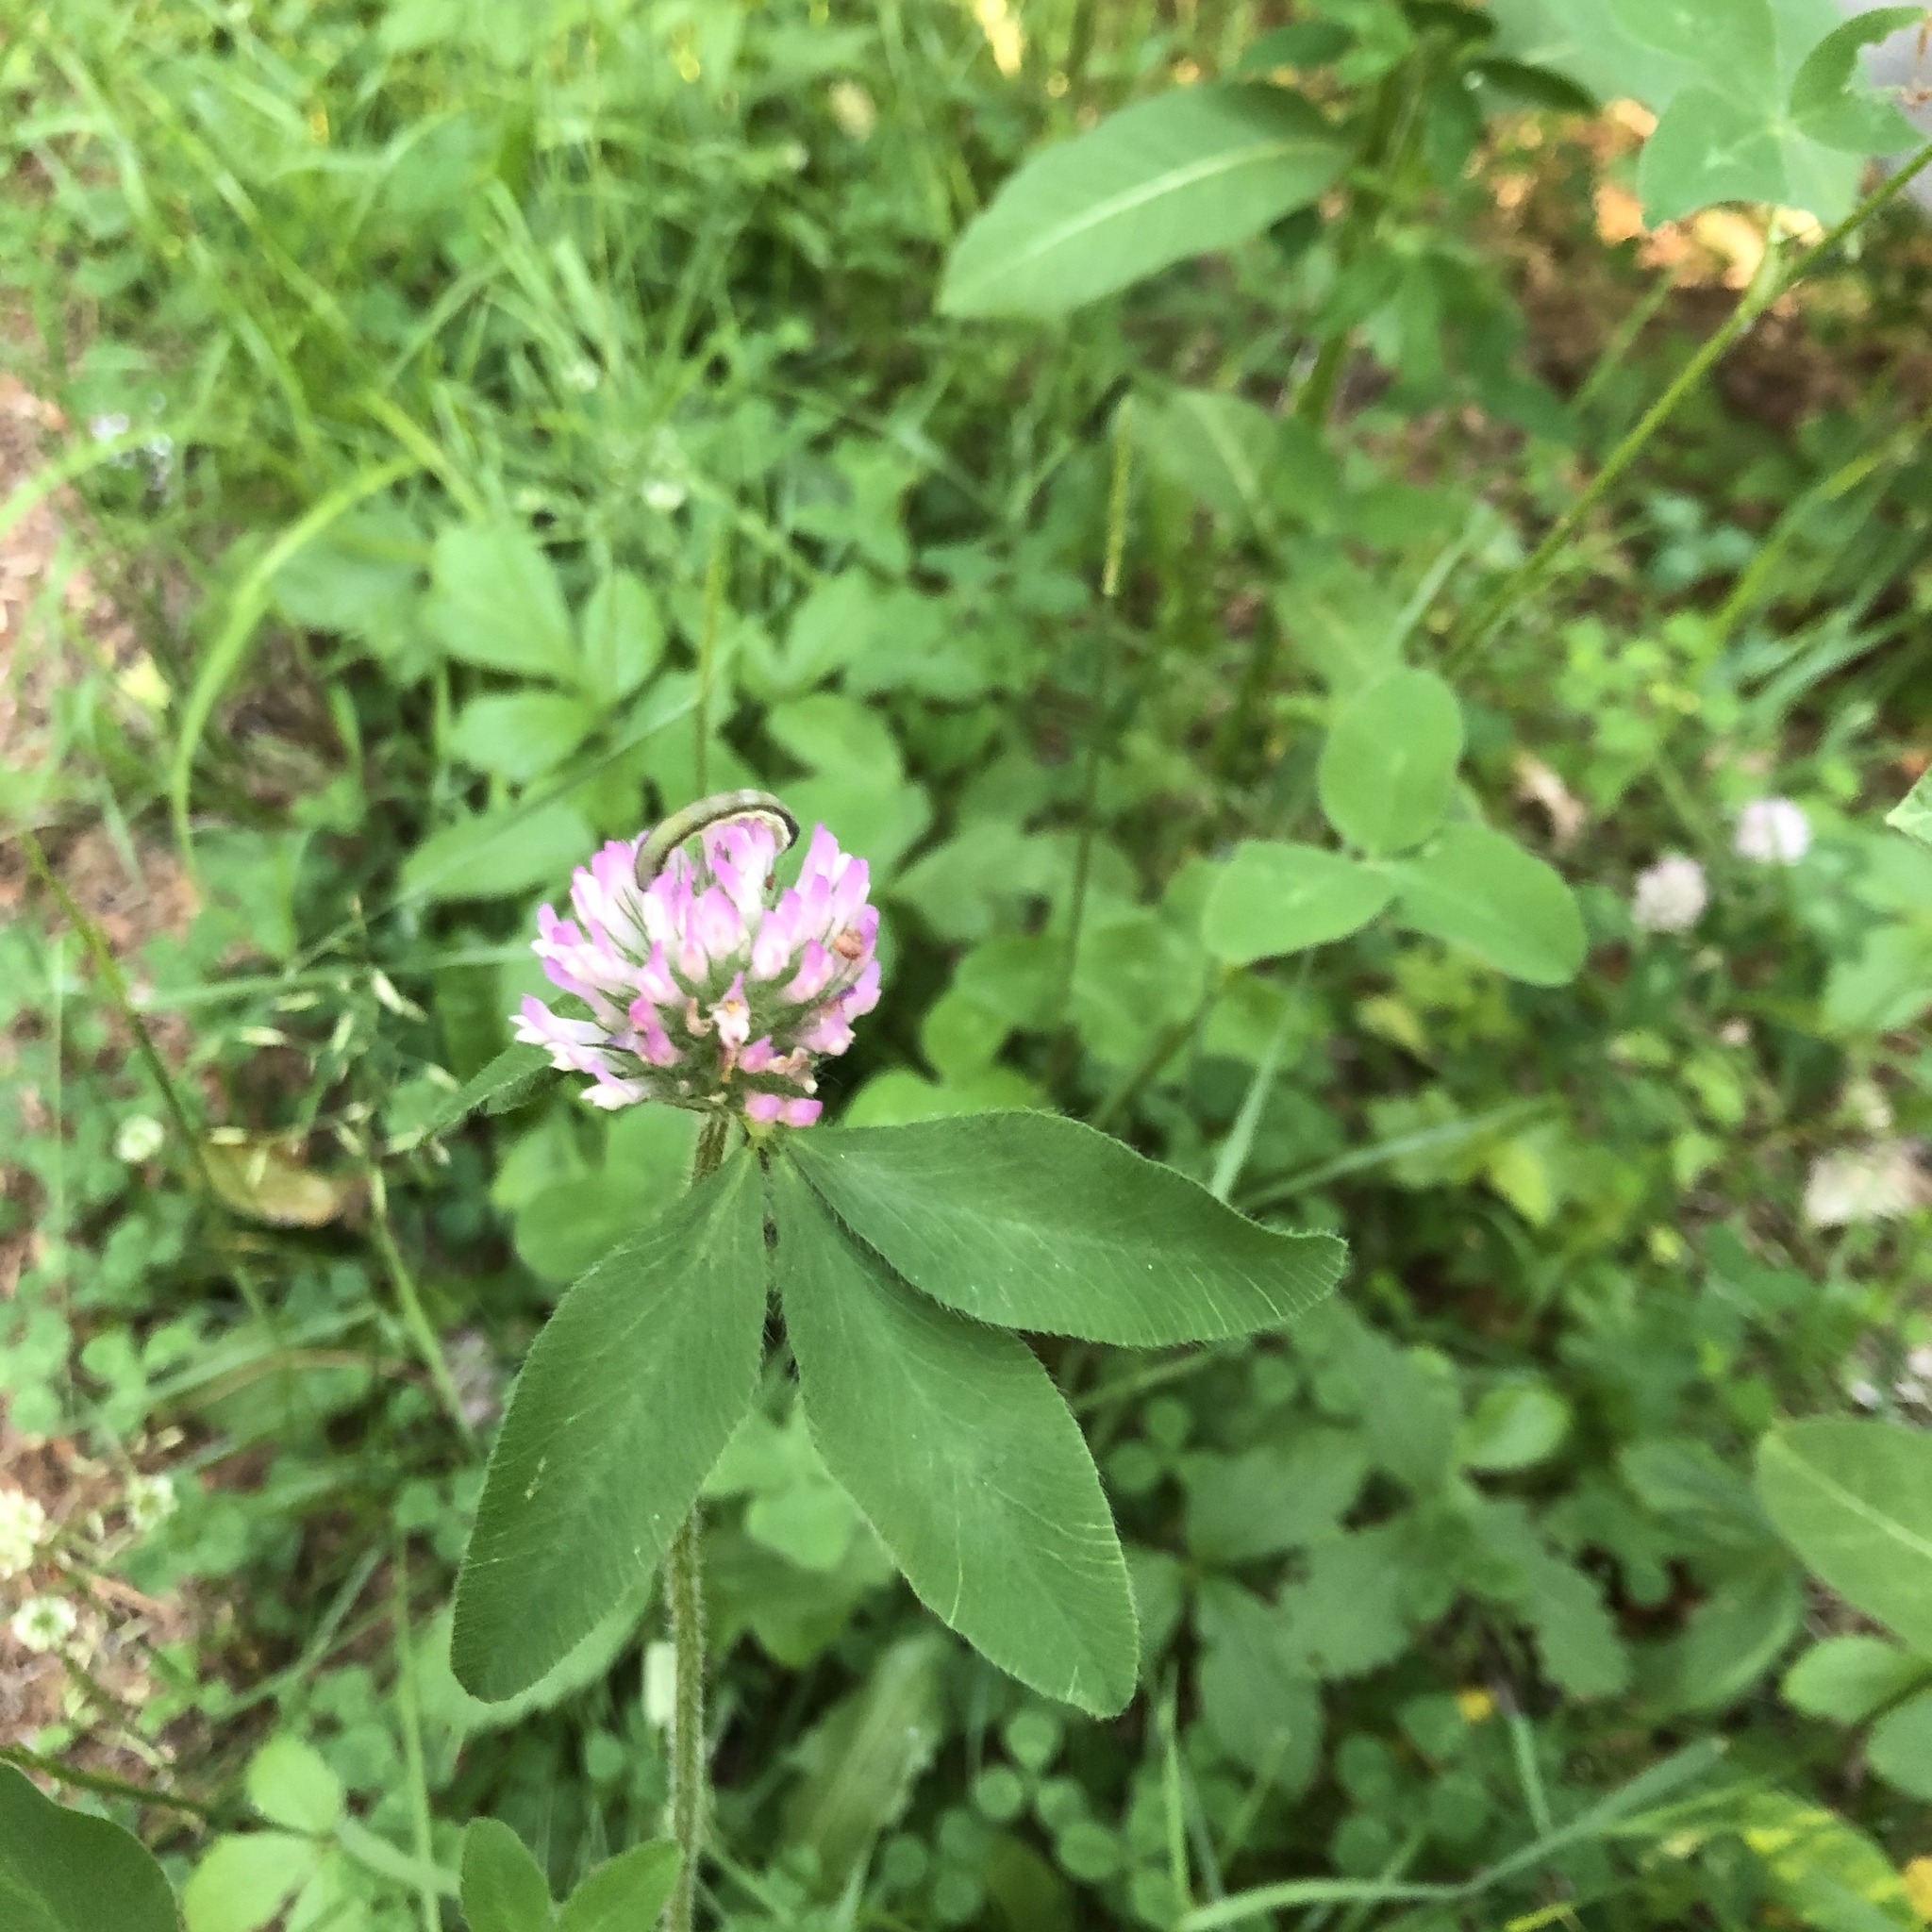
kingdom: Plantae
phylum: Tracheophyta
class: Magnoliopsida
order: Fabales
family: Fabaceae
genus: Trifolium
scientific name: Trifolium pratense
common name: Red clover
